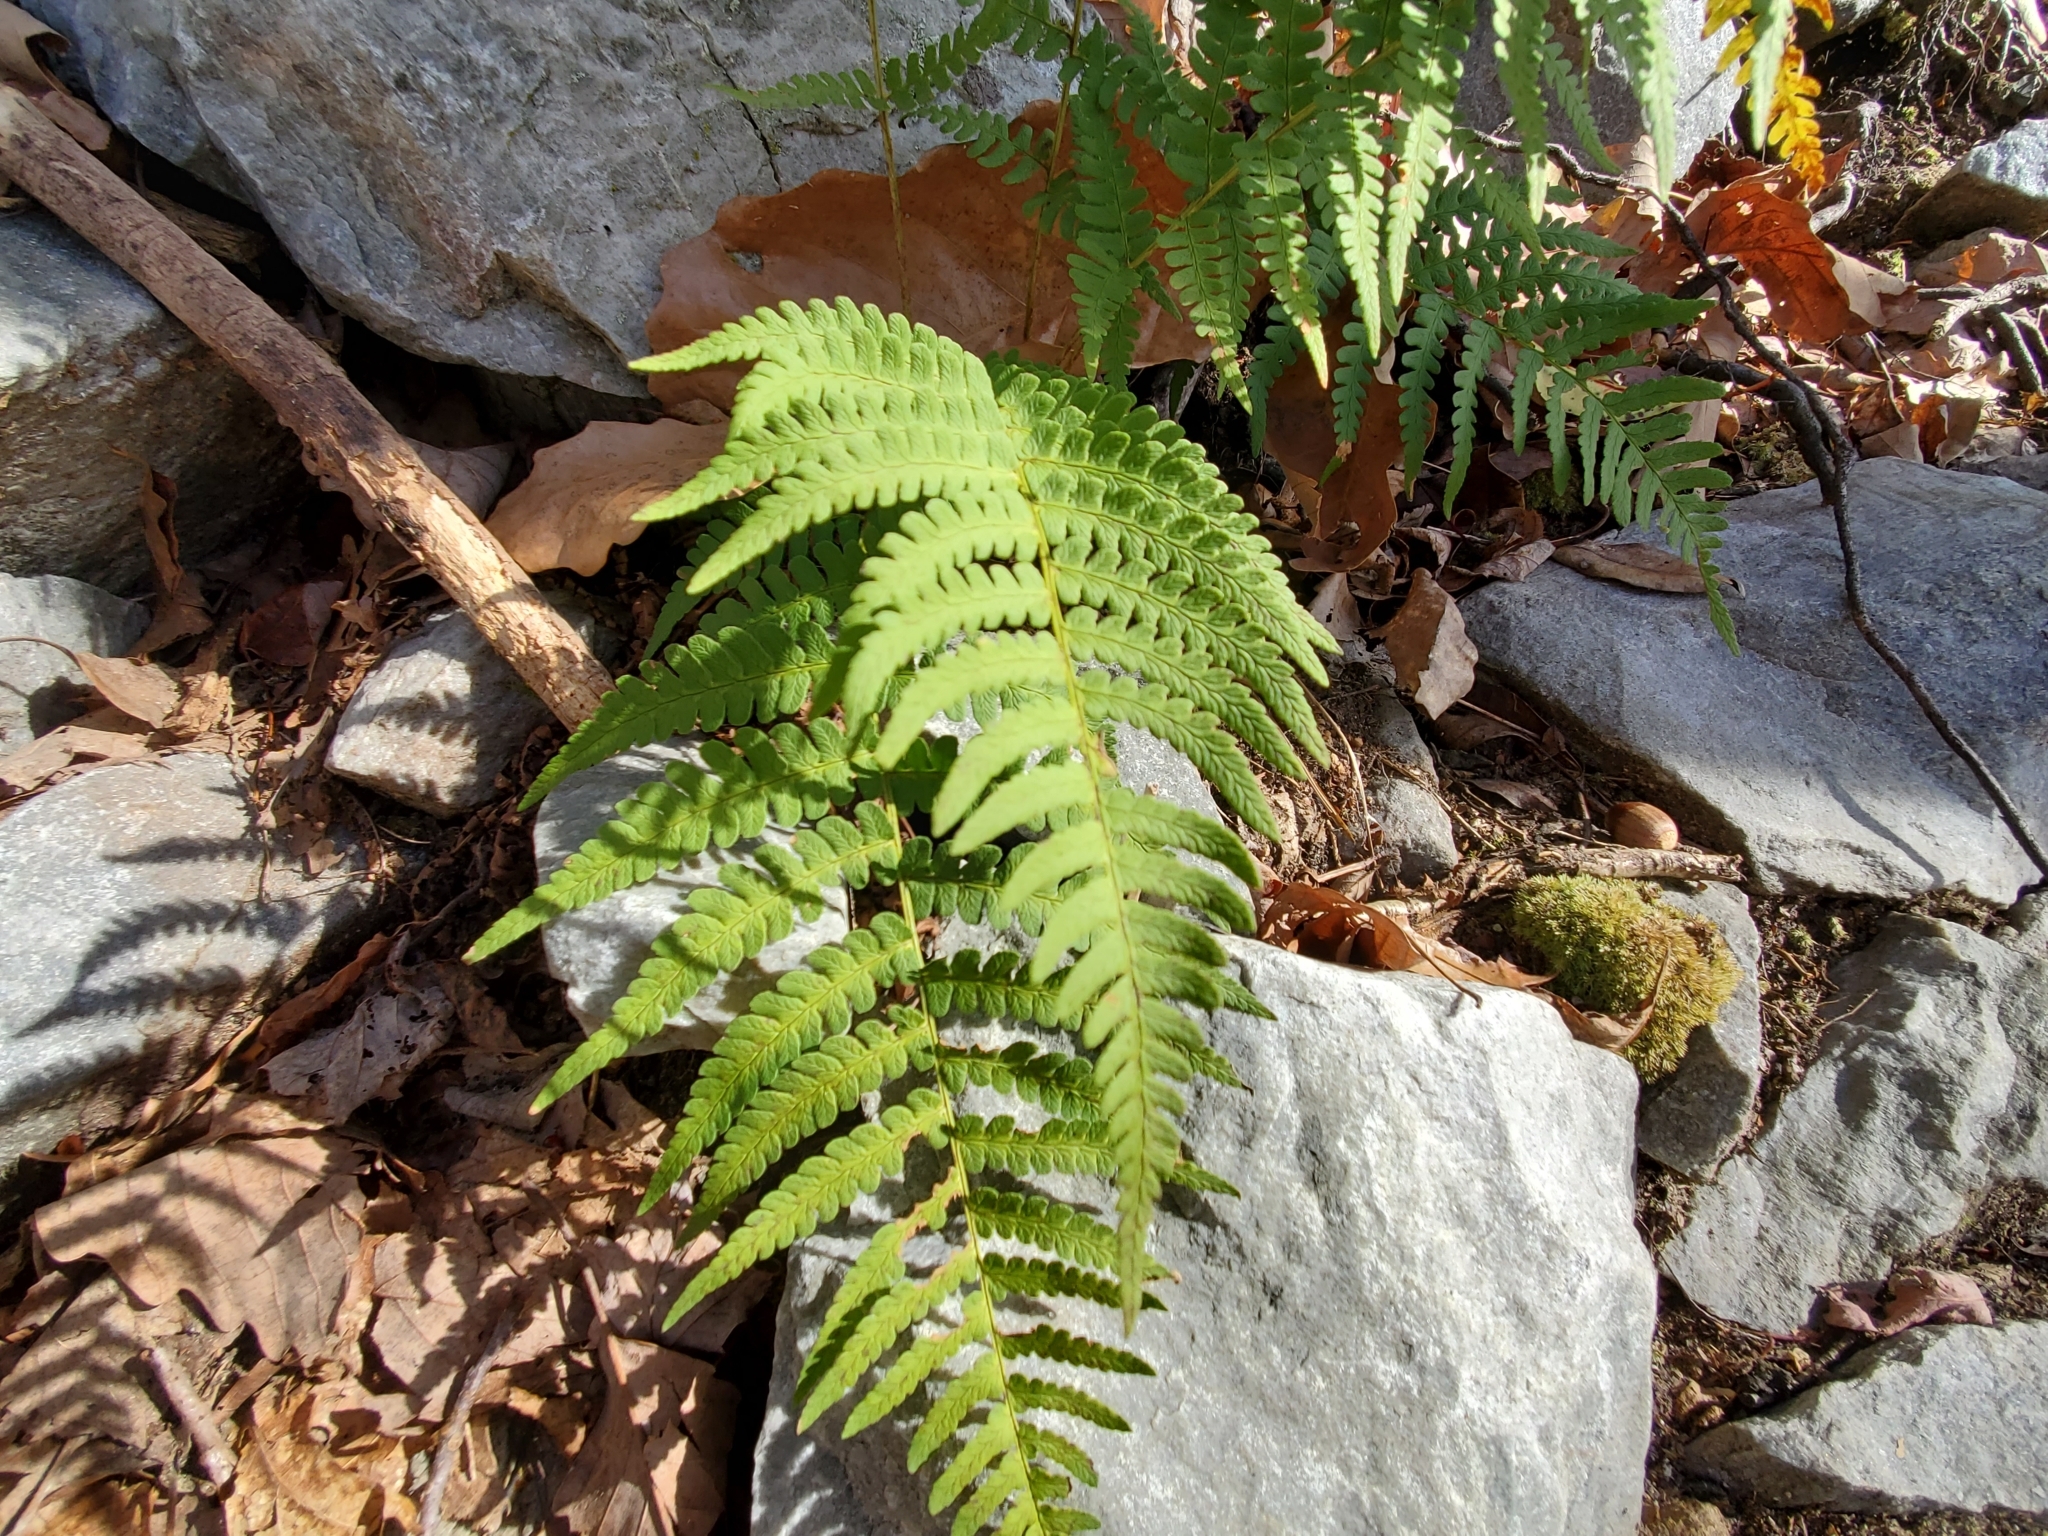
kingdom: Plantae
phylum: Tracheophyta
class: Polypodiopsida
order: Polypodiales
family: Dryopteridaceae
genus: Dryopteris
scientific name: Dryopteris marginalis
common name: Marginal wood fern
